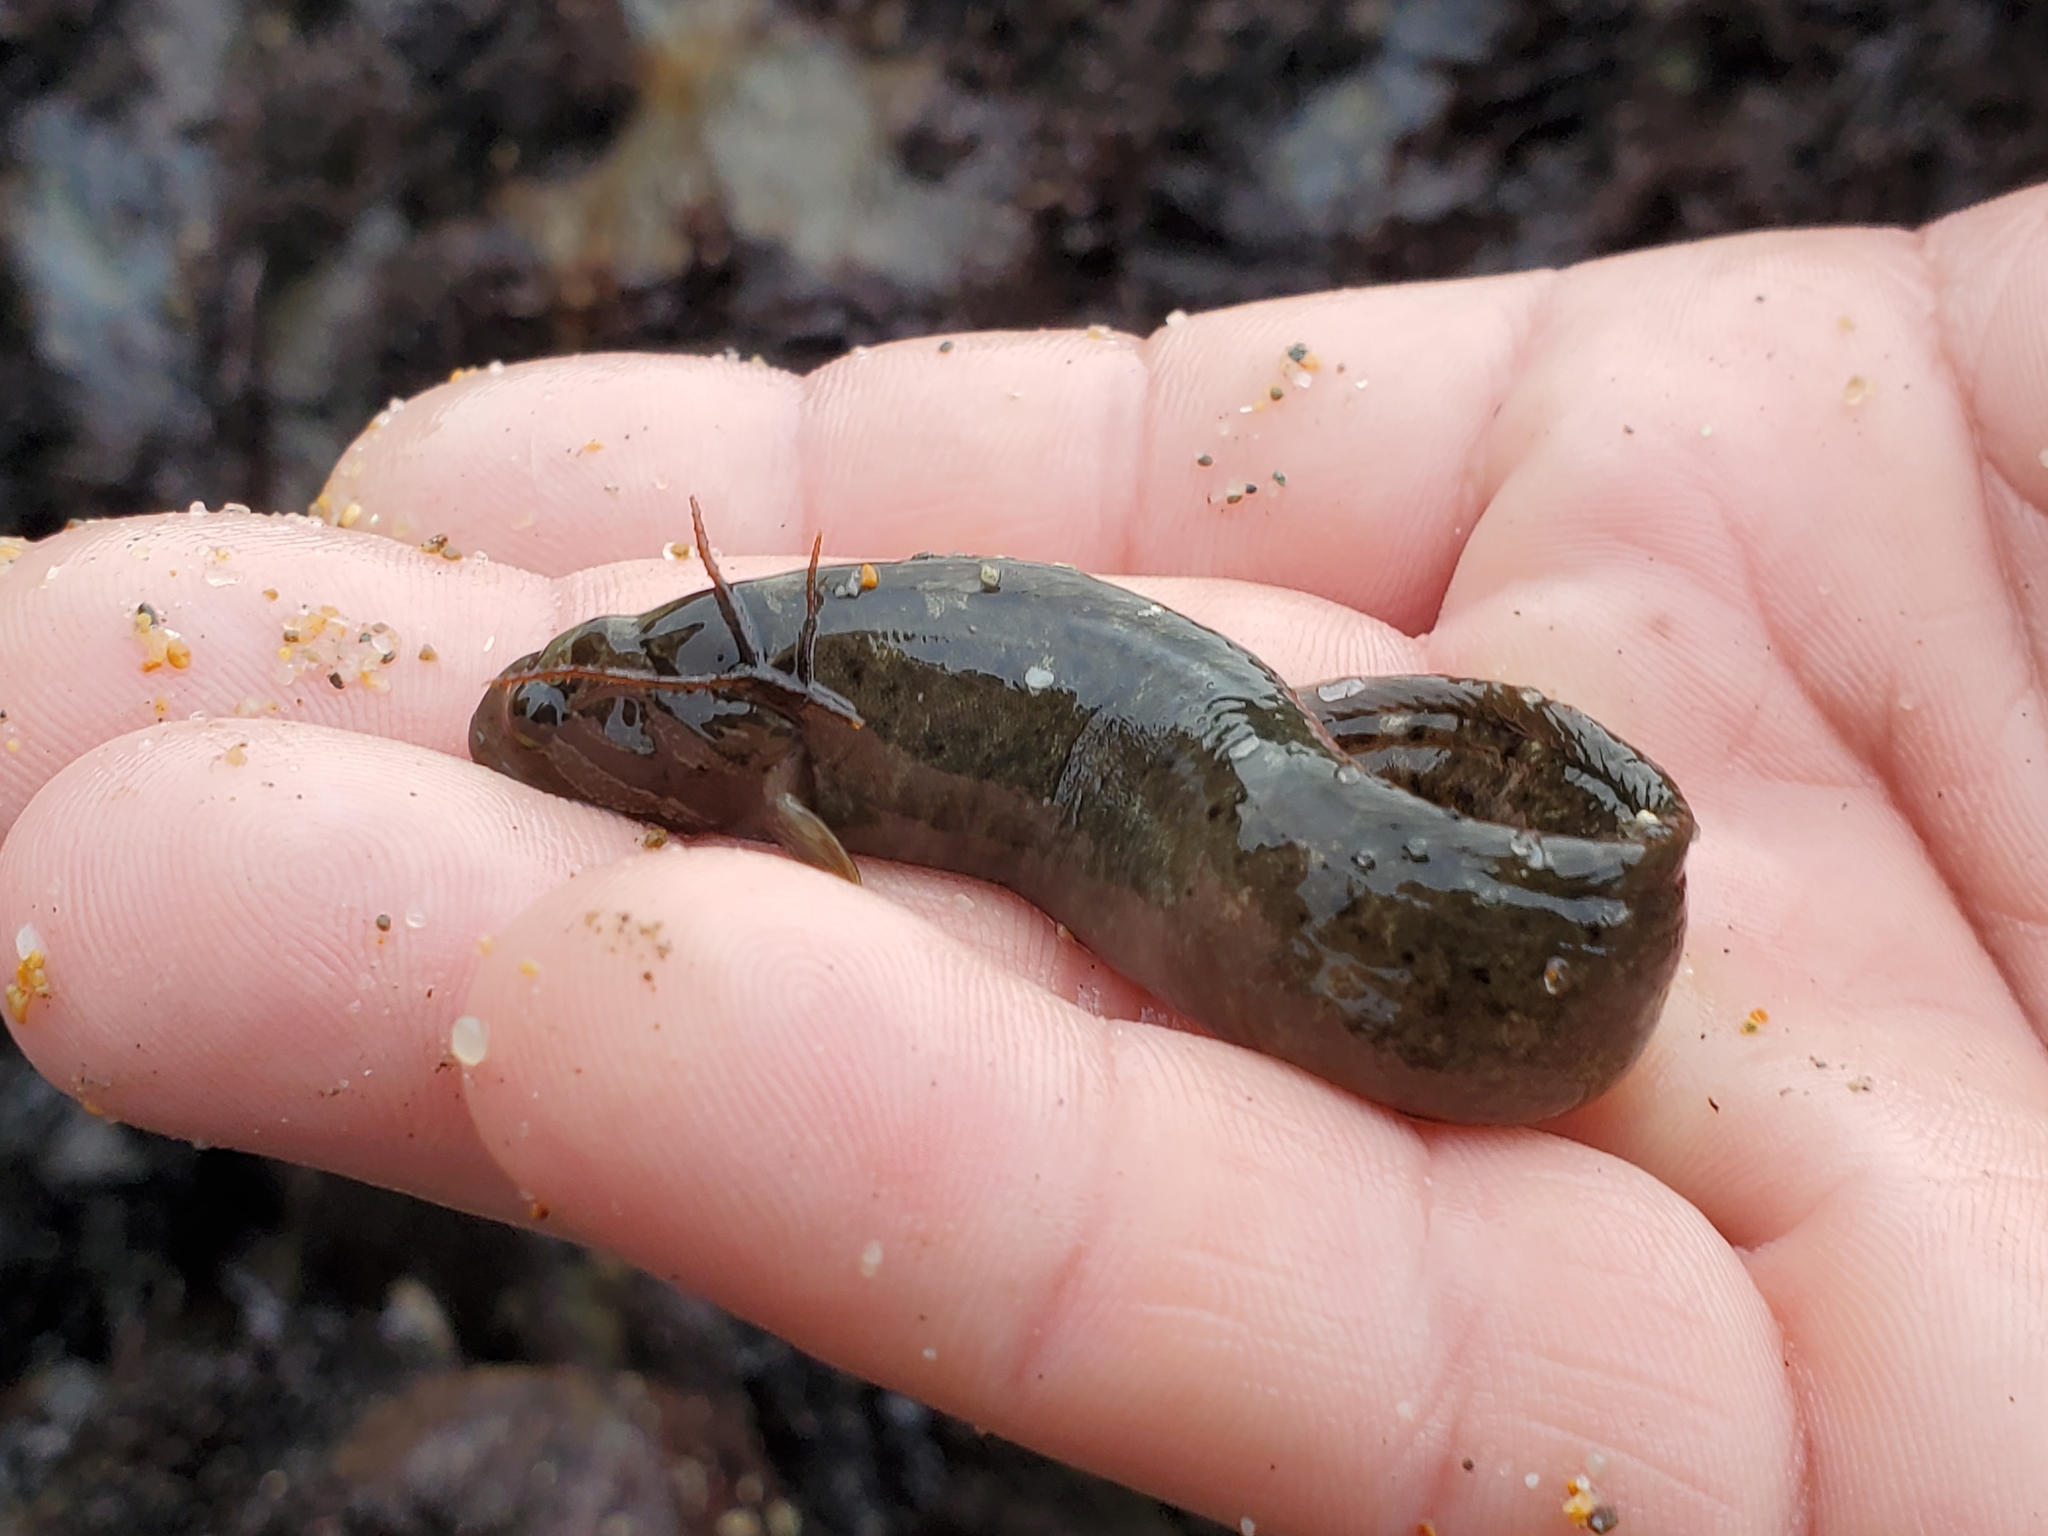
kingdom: Animalia
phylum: Chordata
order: Perciformes
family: Stichaeidae
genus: Anoplarchus
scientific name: Anoplarchus purpurescens
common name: High cockscomb
